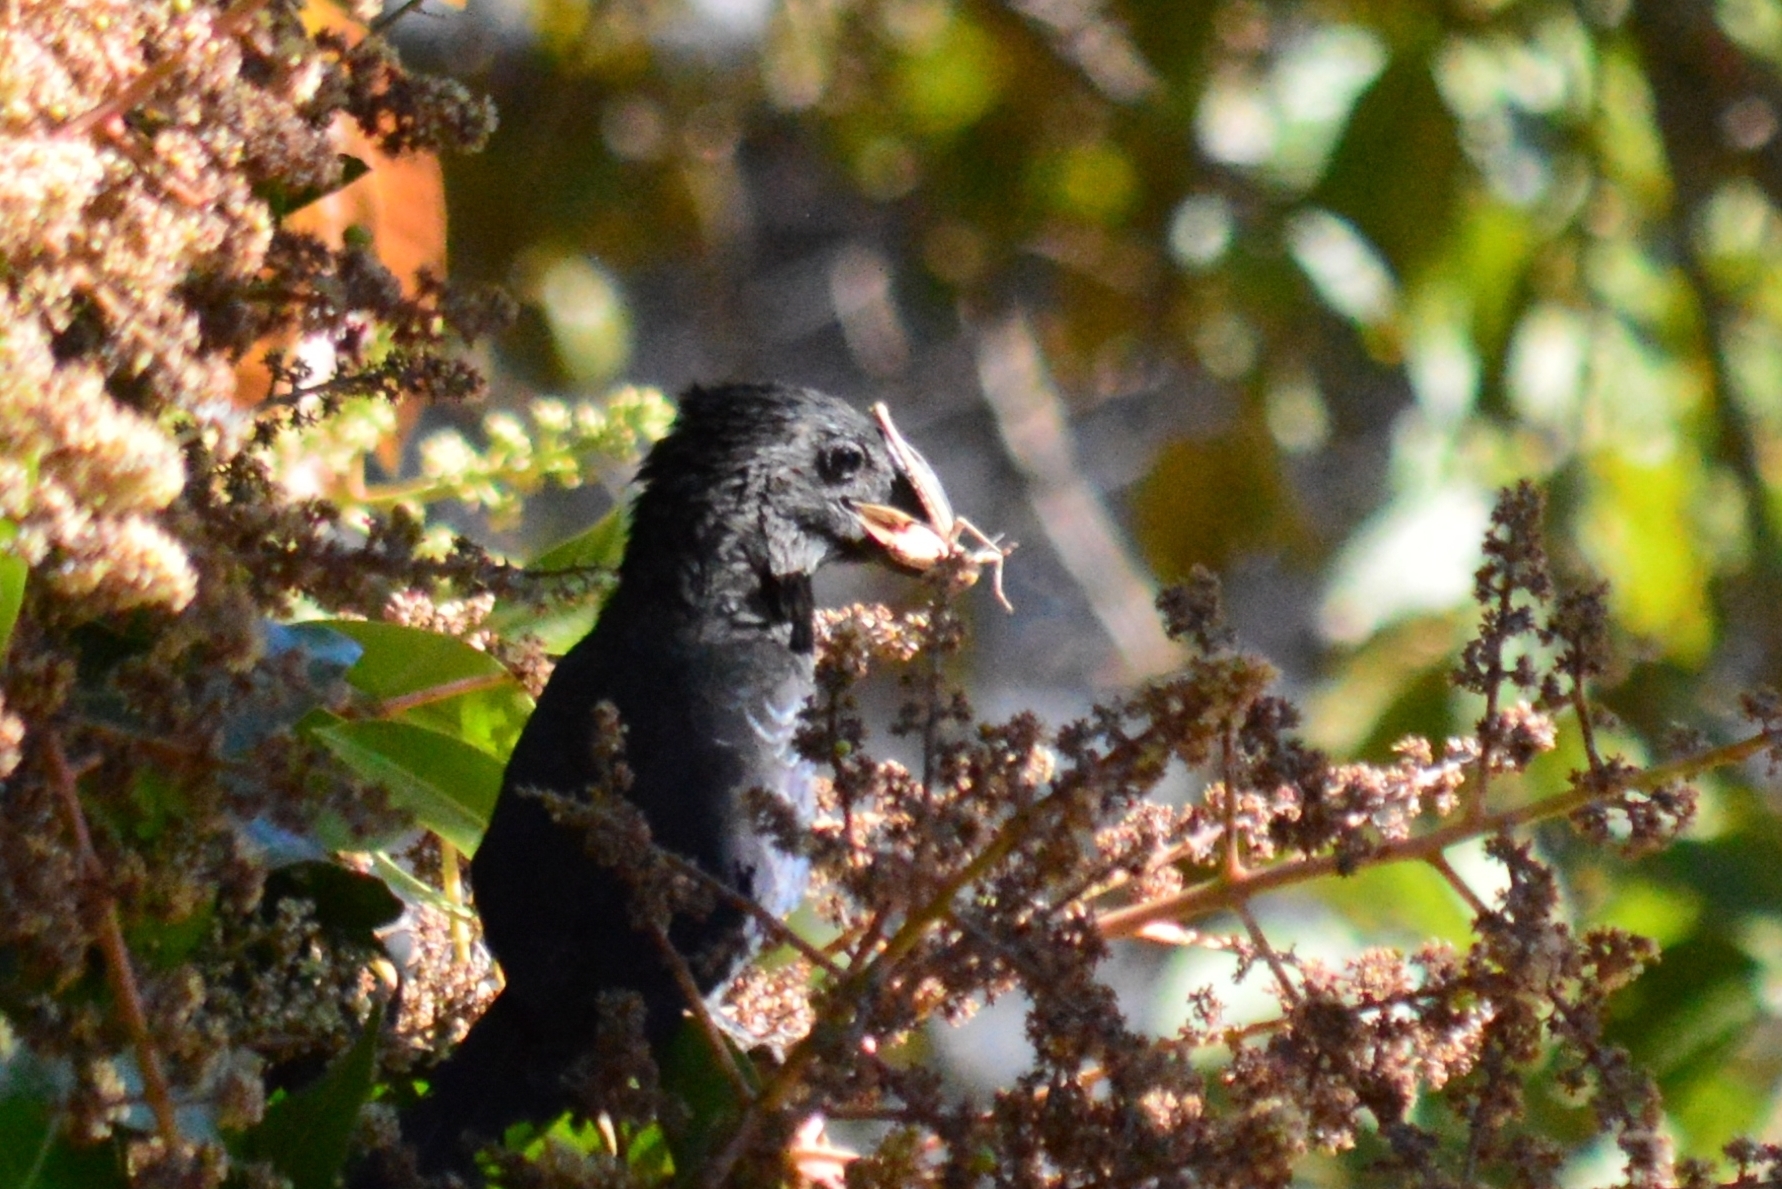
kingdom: Animalia
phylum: Chordata
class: Aves
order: Cuculiformes
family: Cuculidae
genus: Crotophaga
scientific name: Crotophaga ani
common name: Smooth-billed ani
